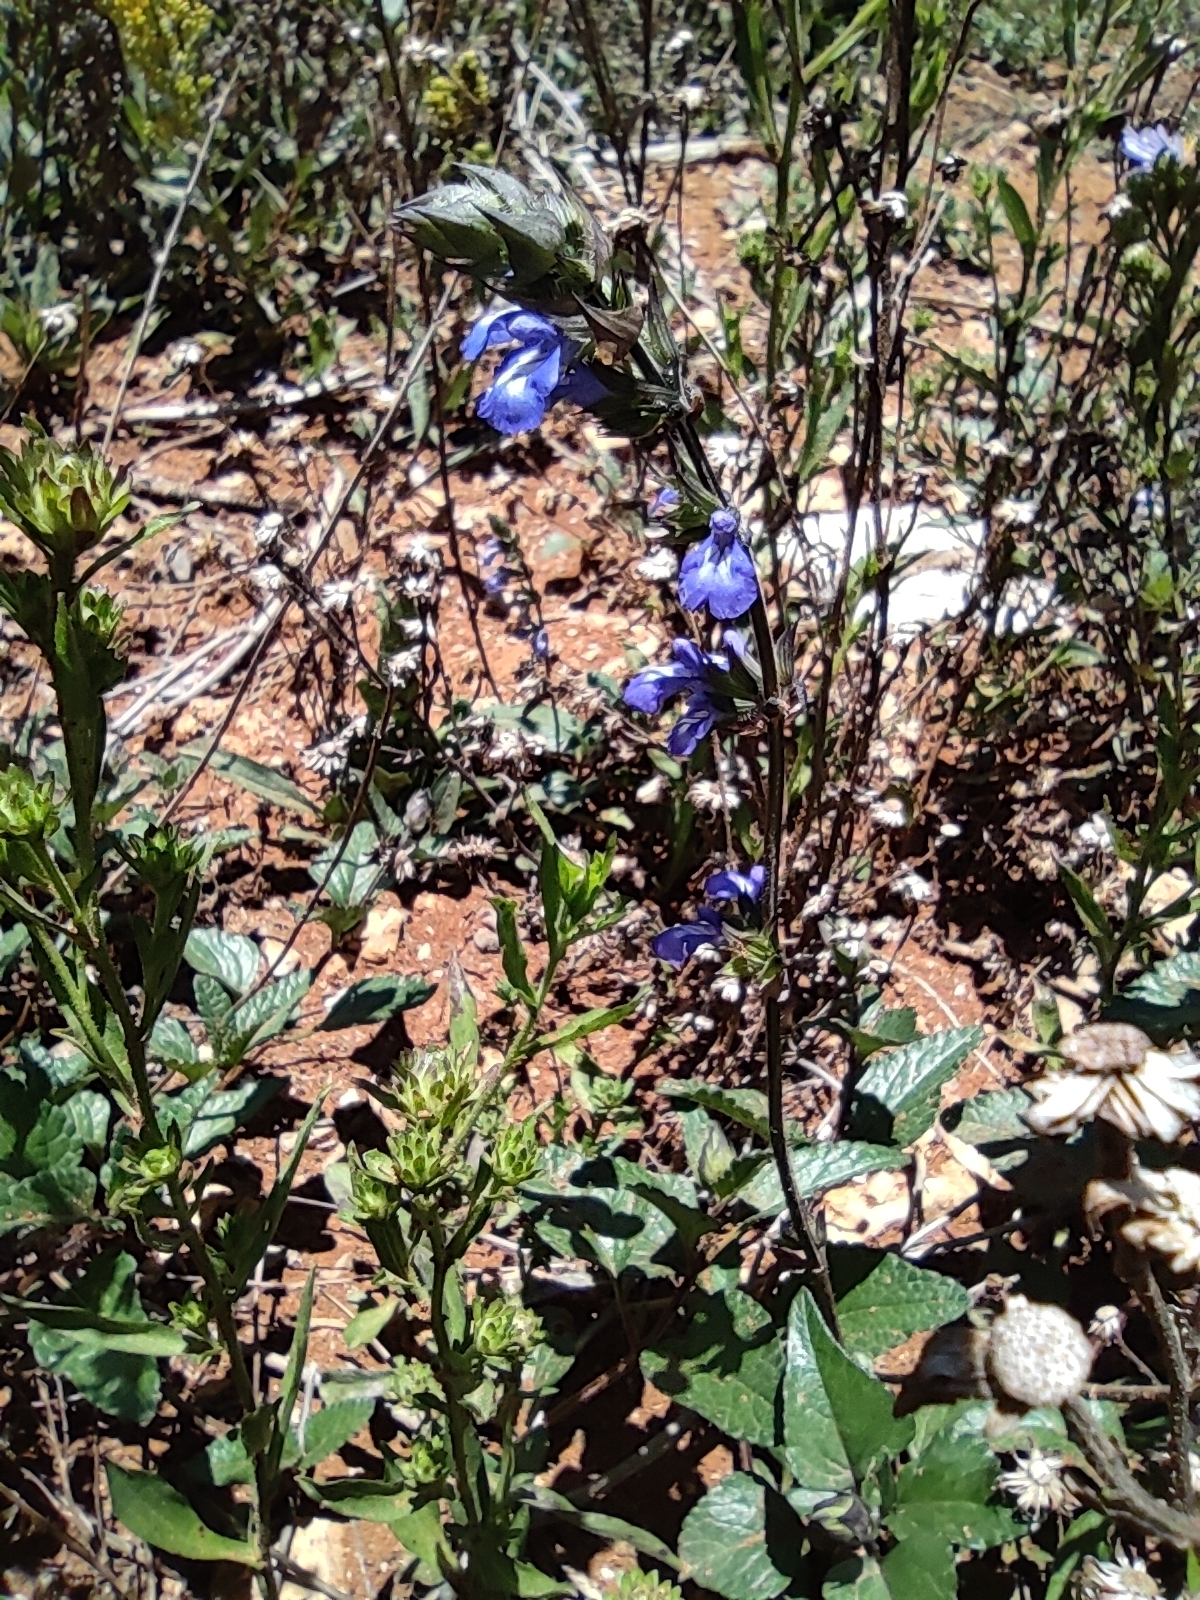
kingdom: Plantae
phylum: Tracheophyta
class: Magnoliopsida
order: Lamiales
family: Lamiaceae
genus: Salvia
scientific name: Salvia prunelloides
